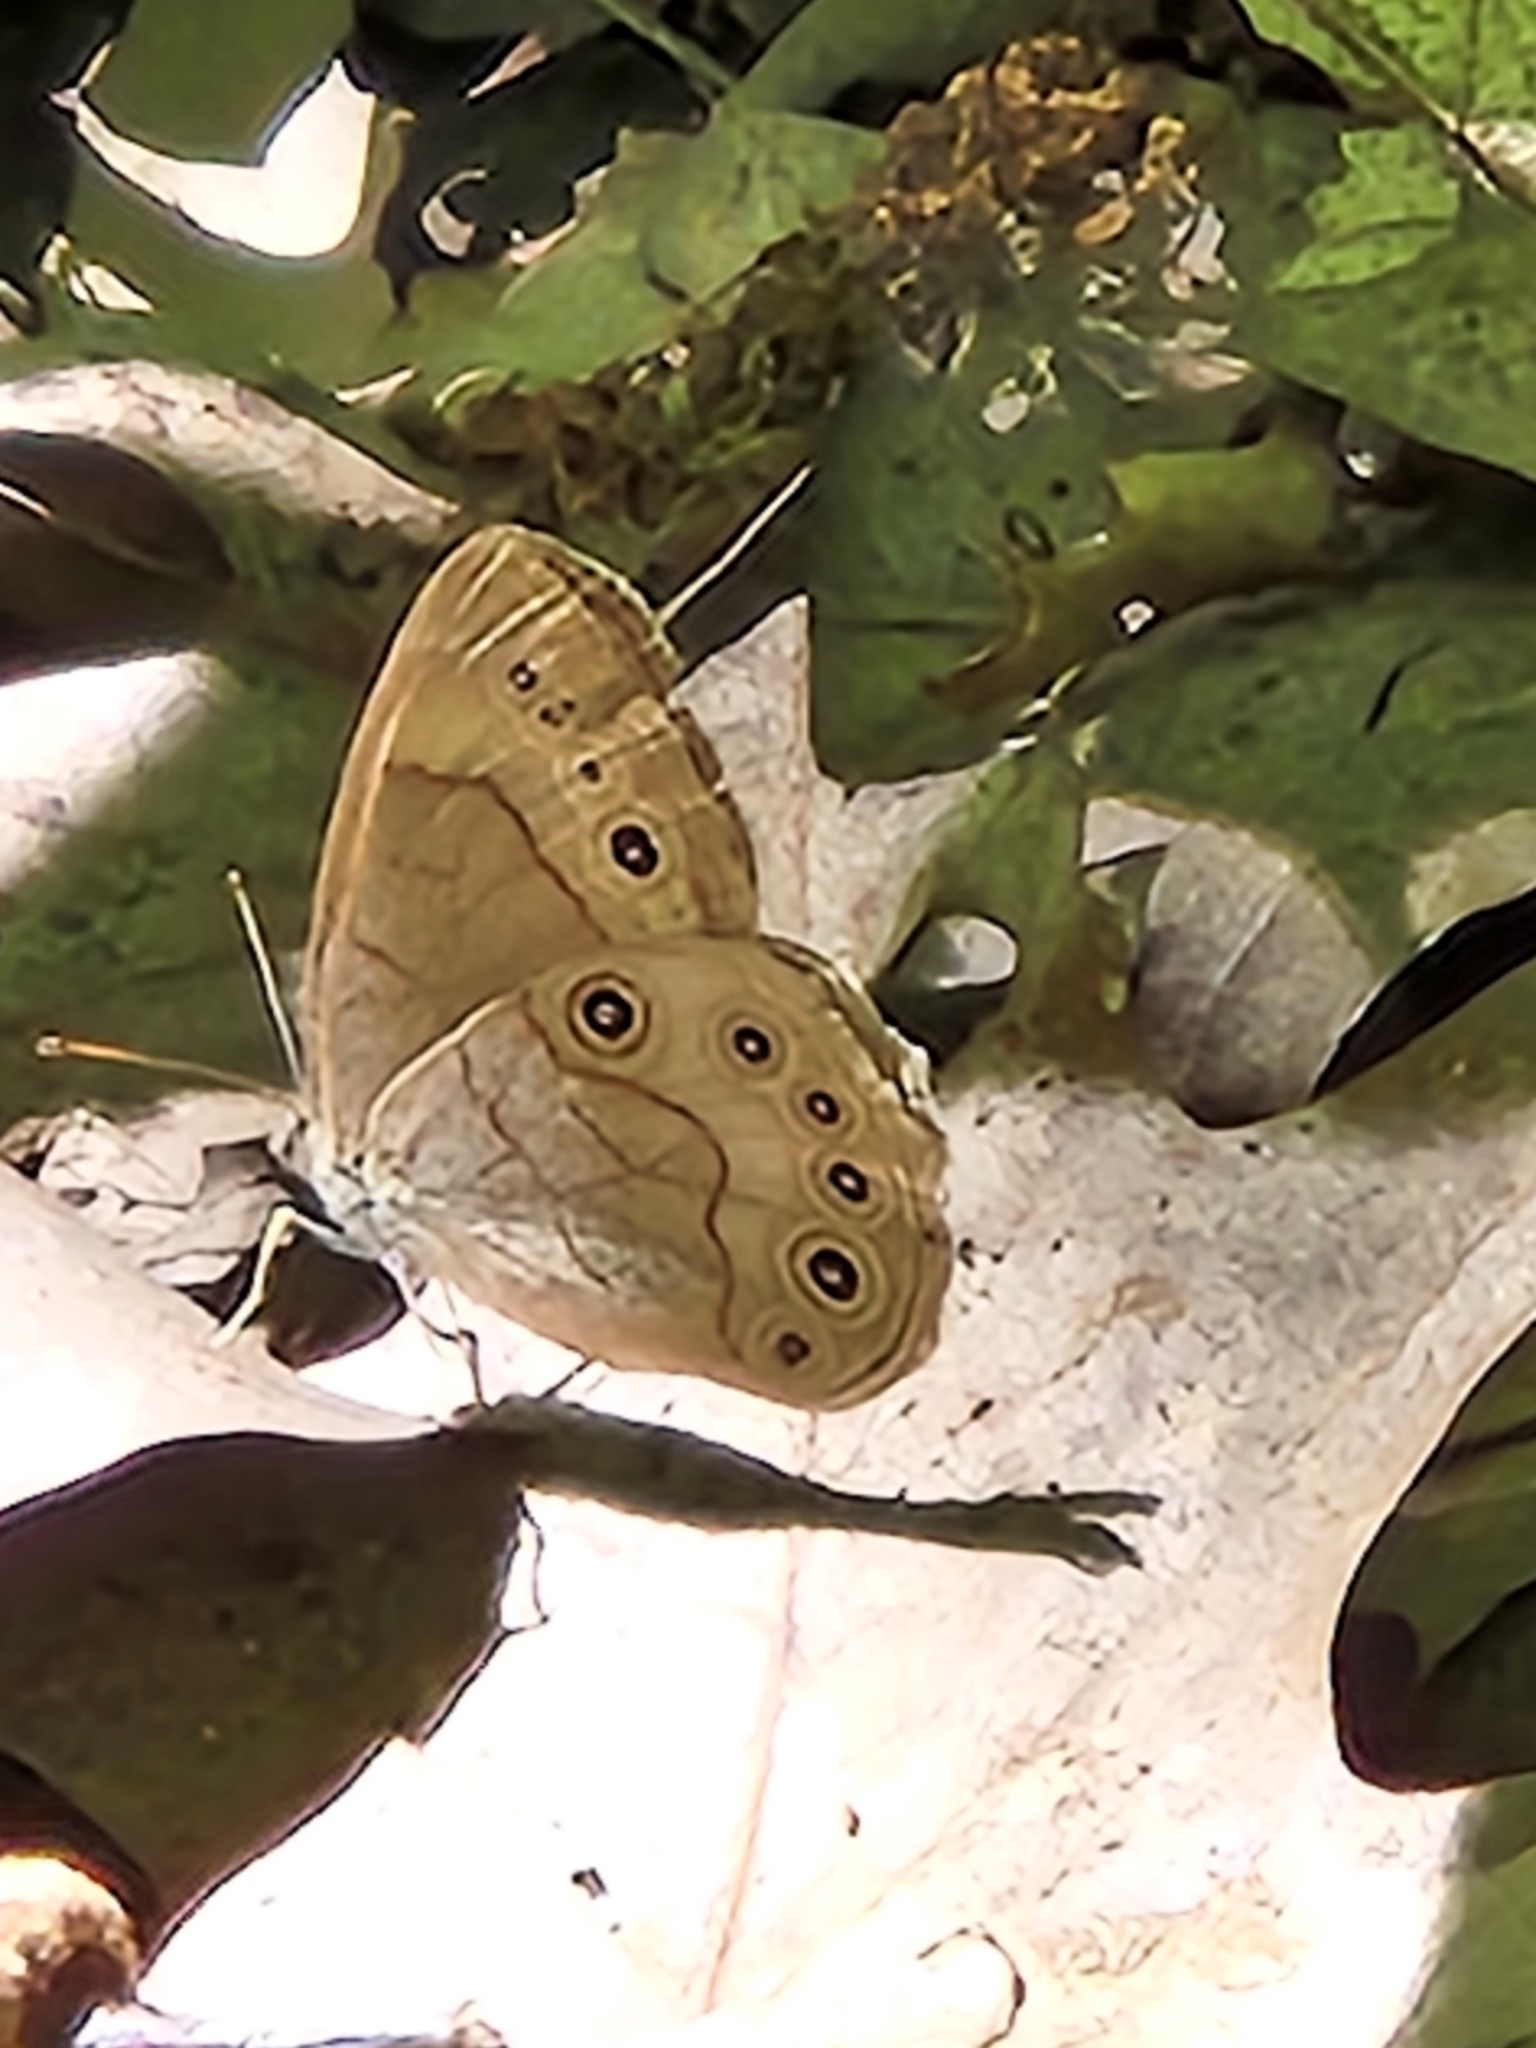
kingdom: Animalia
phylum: Arthropoda
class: Insecta
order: Lepidoptera
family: Nymphalidae
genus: Lethe
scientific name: Lethe eurydice
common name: Eyed brown
